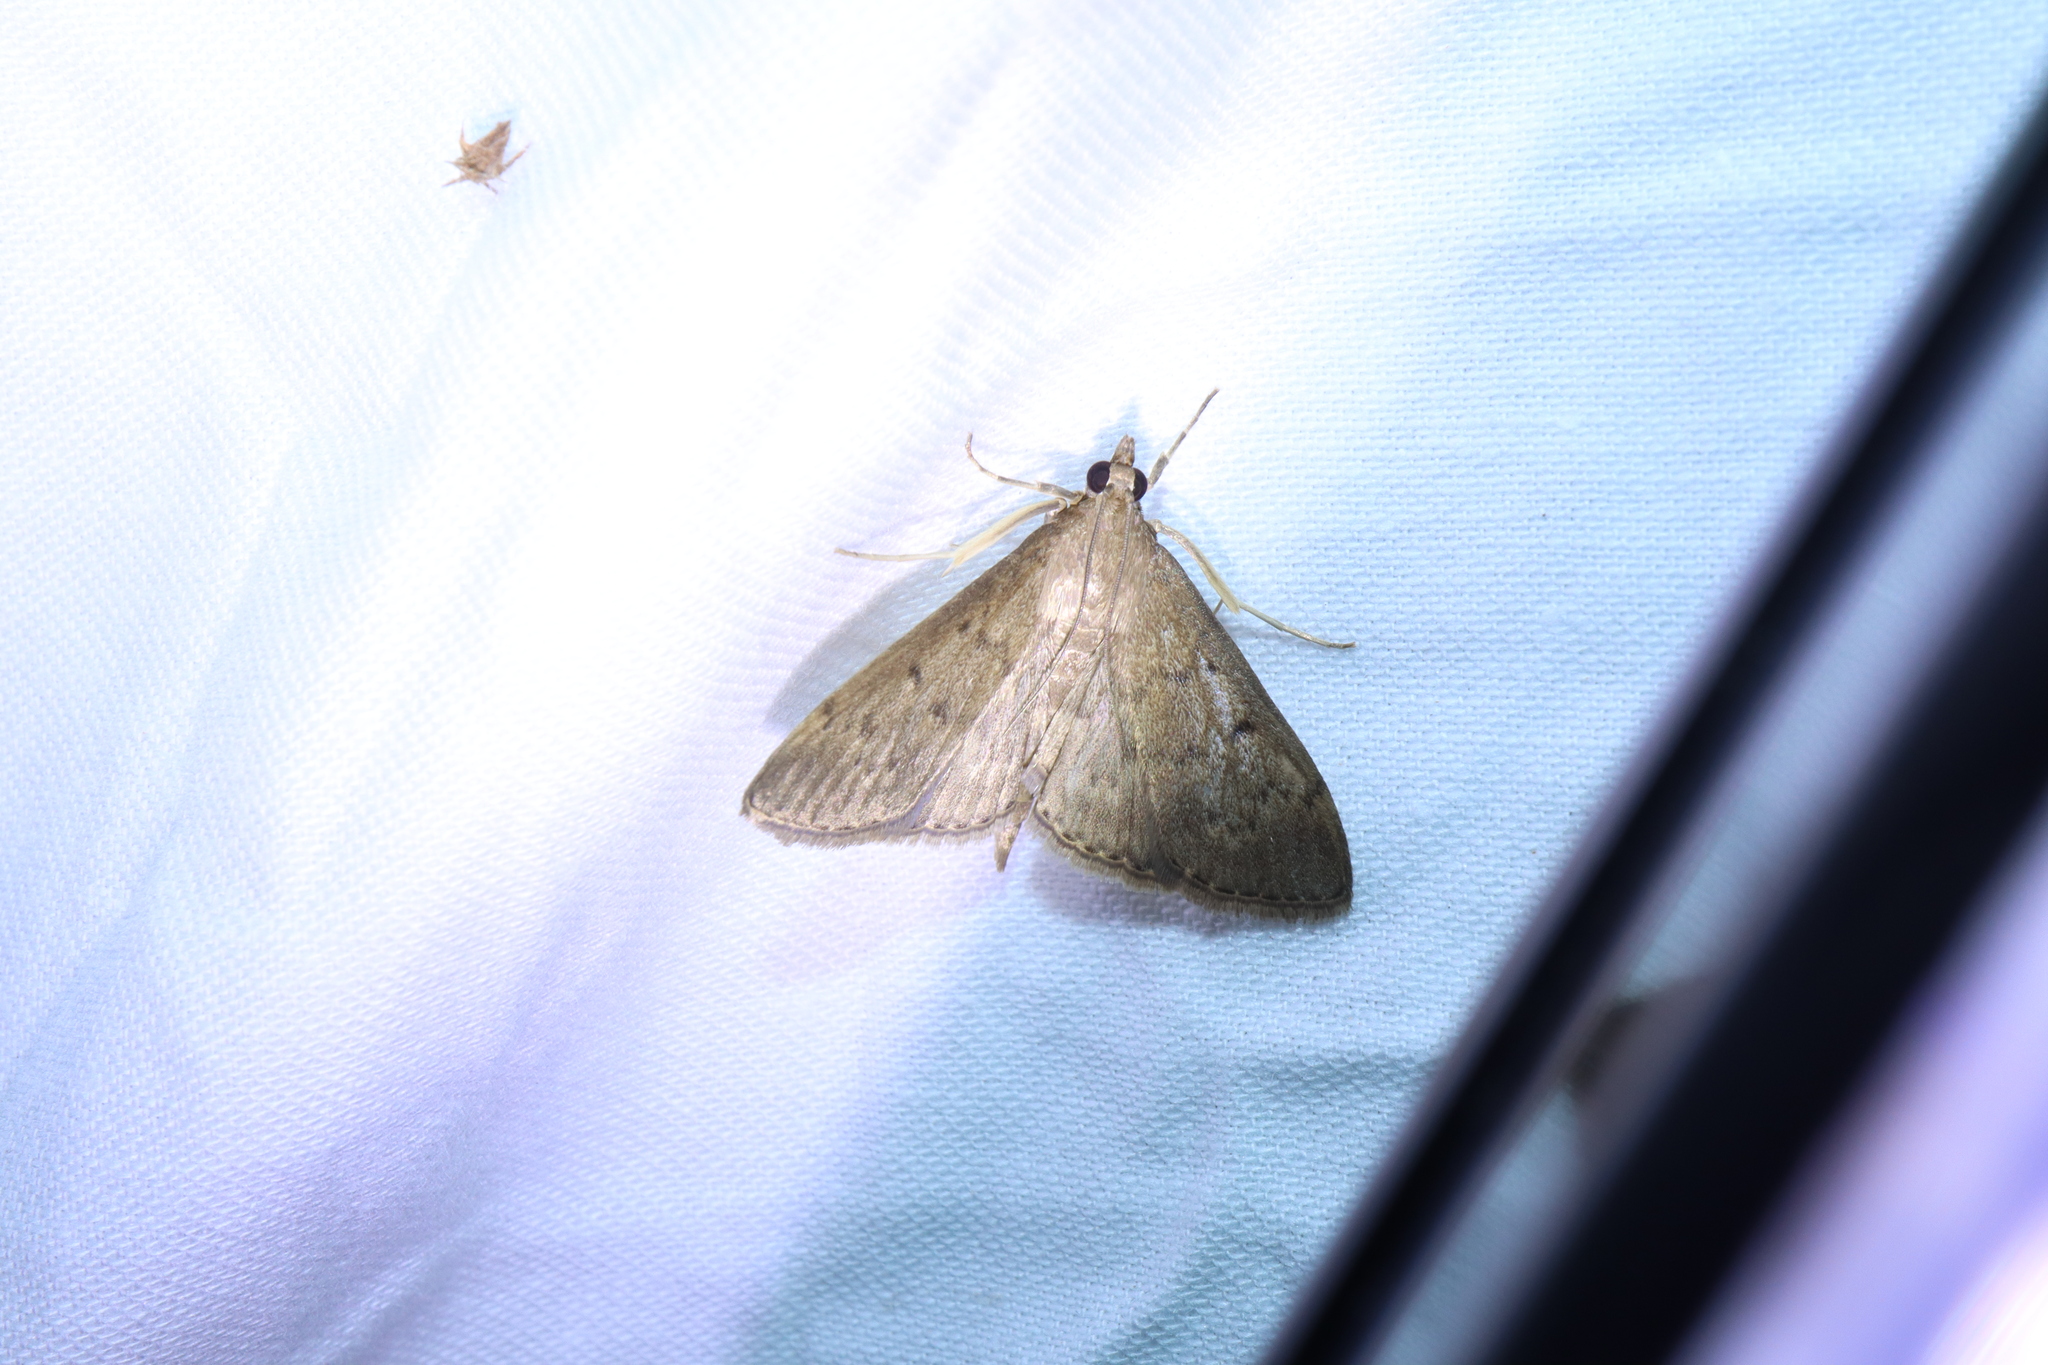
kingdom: Animalia
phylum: Arthropoda
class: Insecta
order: Lepidoptera
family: Crambidae
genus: Herpetogramma
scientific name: Herpetogramma licarsisalis
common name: Grass webworm
